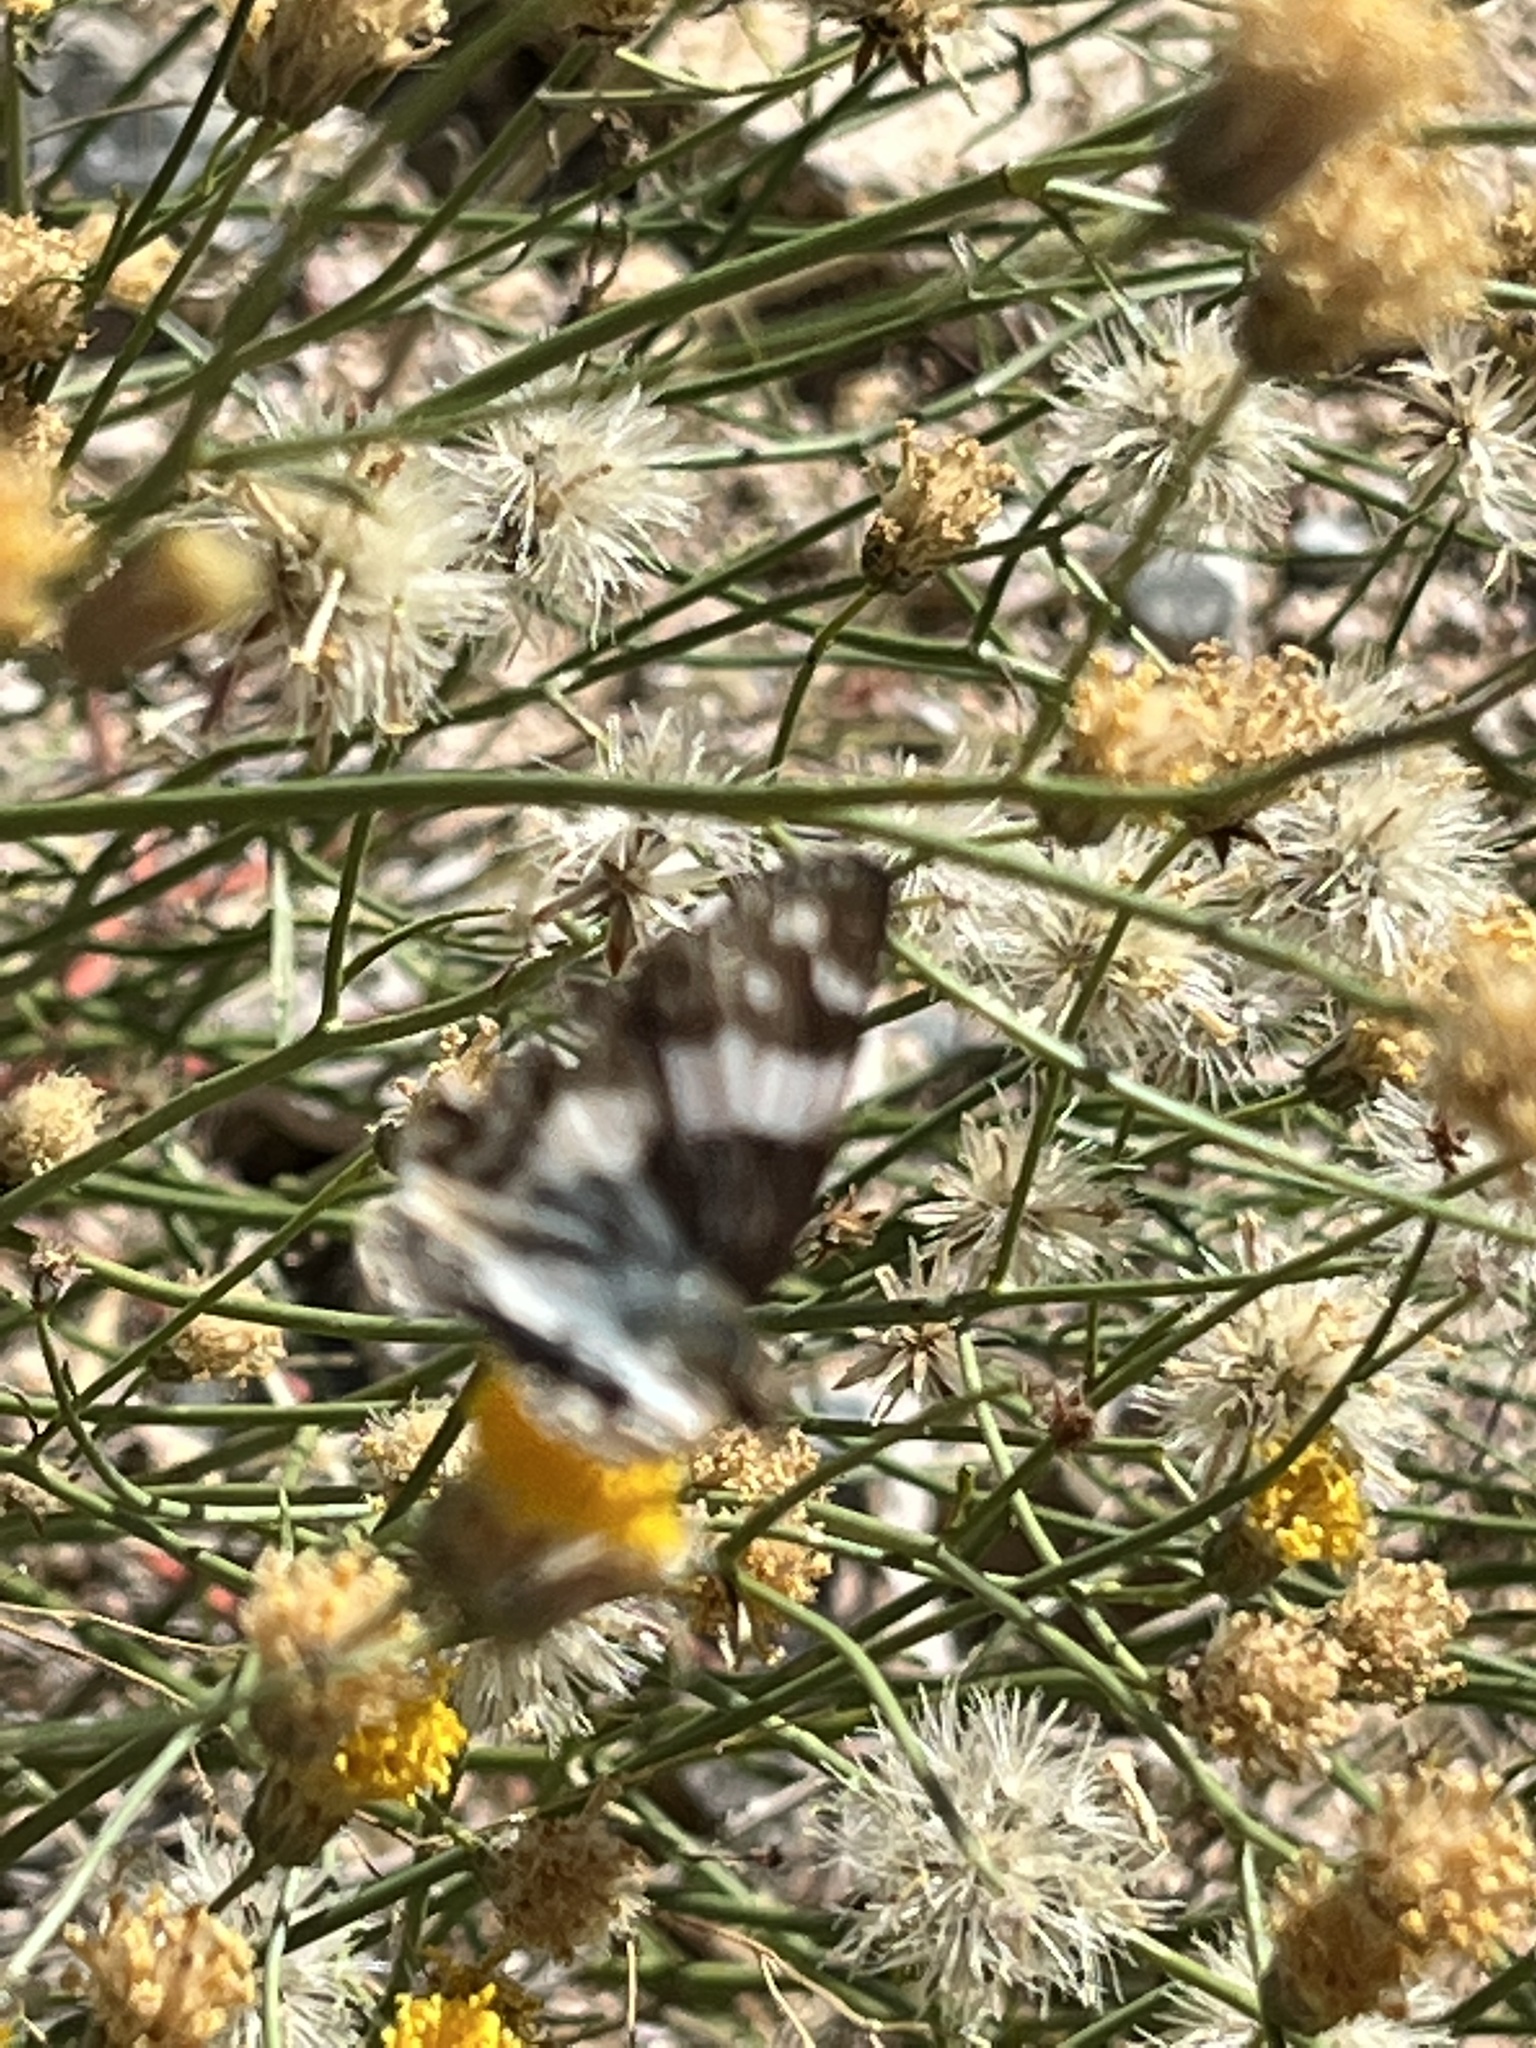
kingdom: Animalia
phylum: Arthropoda
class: Insecta
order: Lepidoptera
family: Hesperiidae
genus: Heliopyrgus
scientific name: Heliopyrgus domicella
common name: Erichson's white skipper
